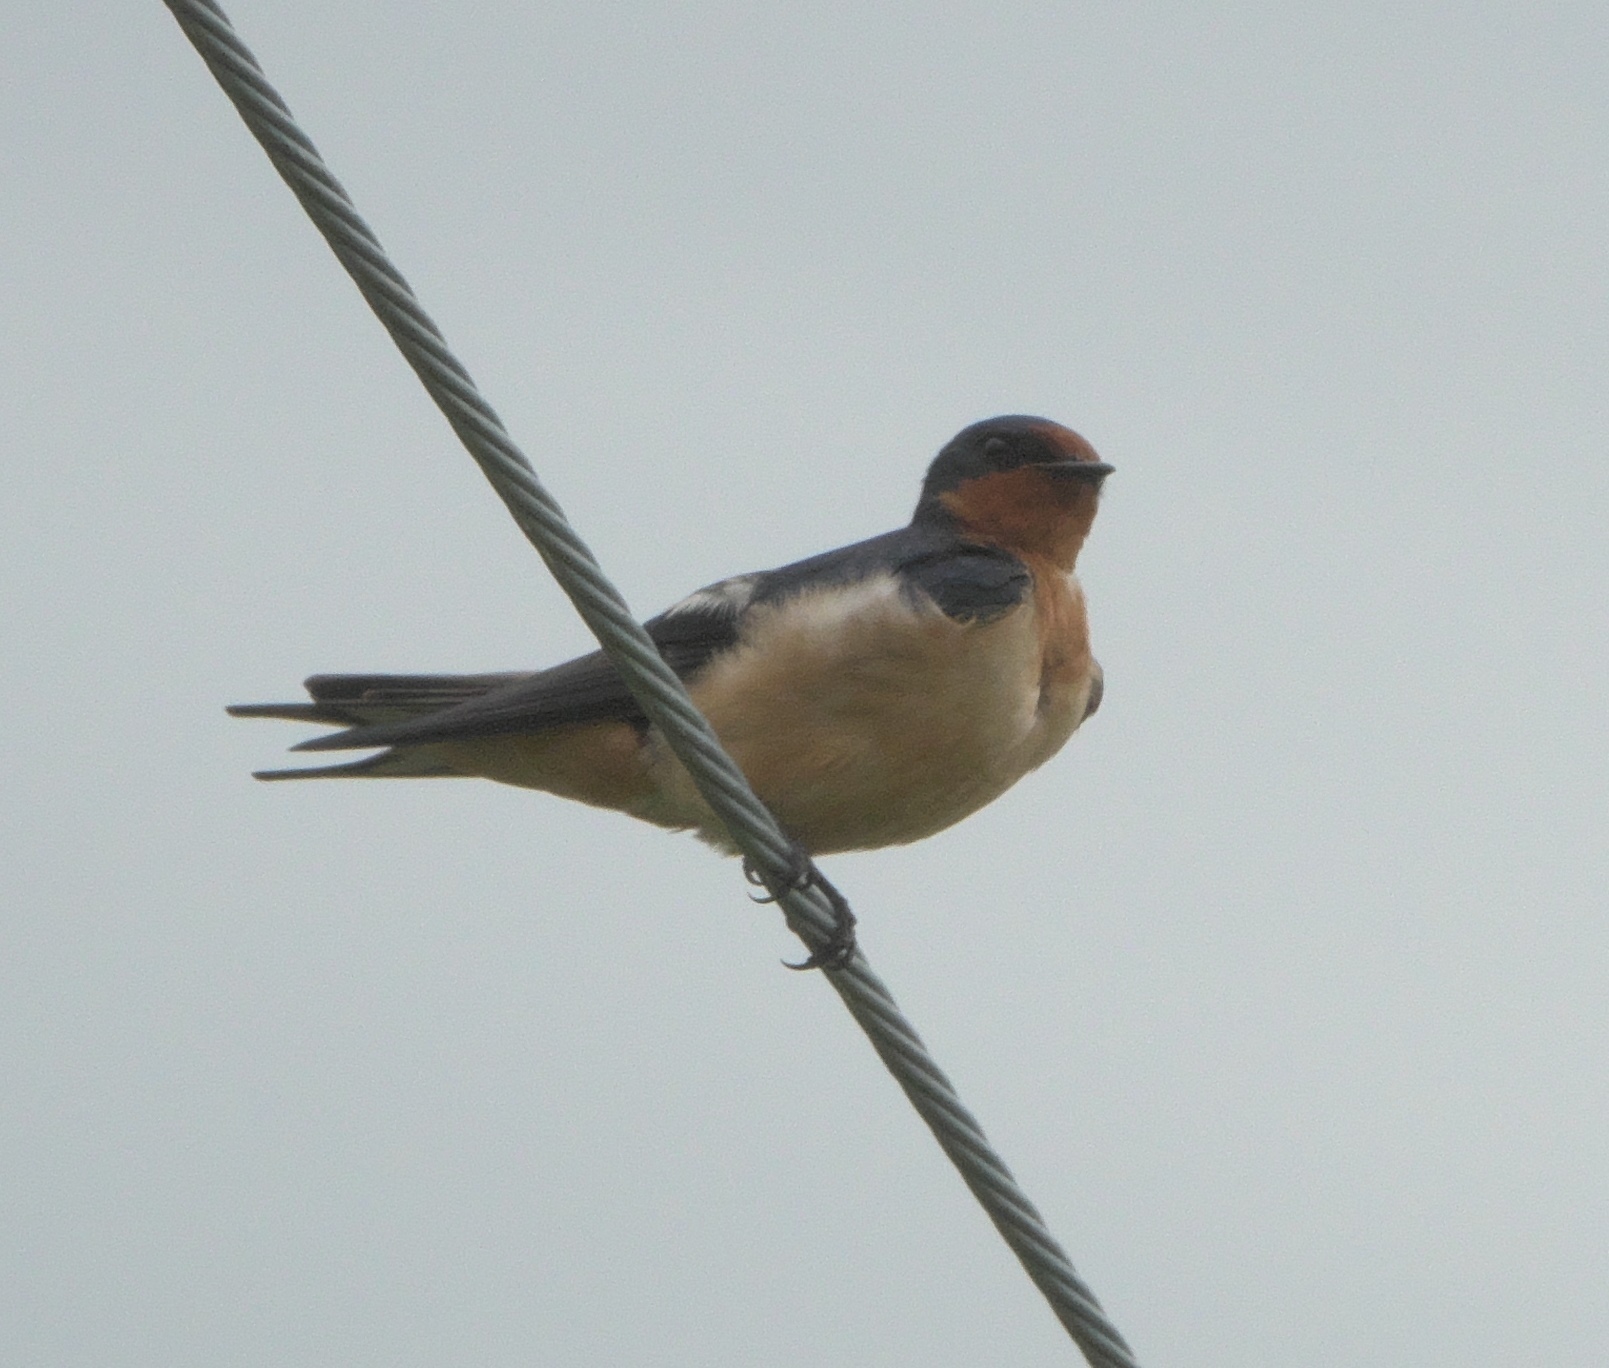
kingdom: Animalia
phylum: Chordata
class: Aves
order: Passeriformes
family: Hirundinidae
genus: Hirundo
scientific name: Hirundo rustica
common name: Barn swallow
